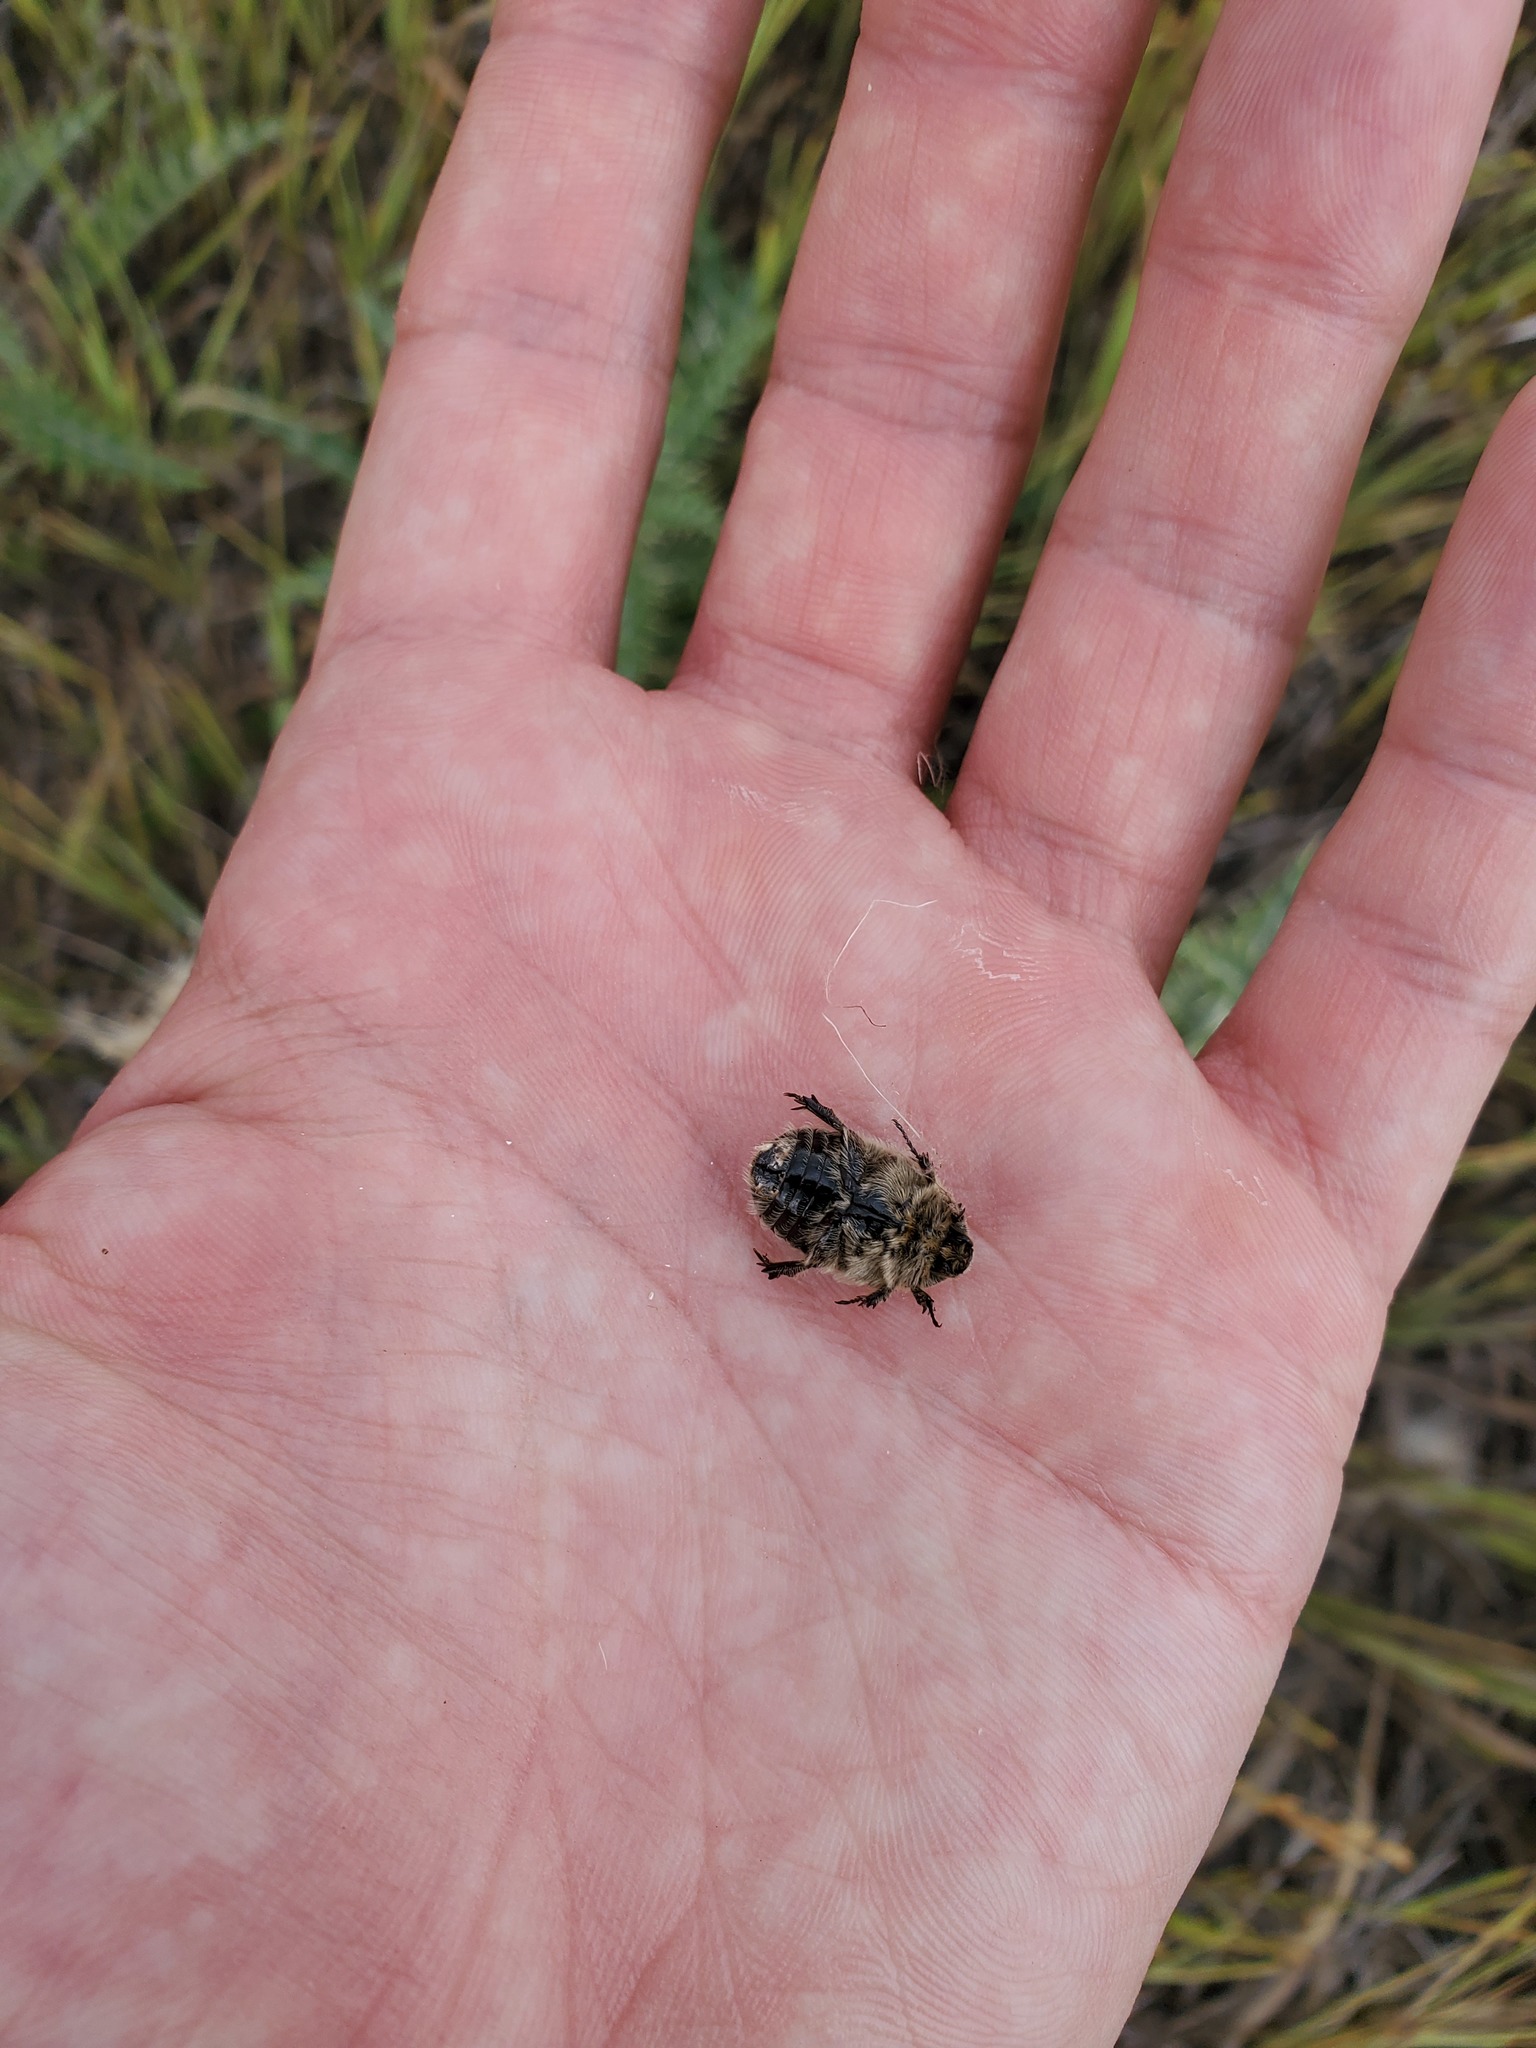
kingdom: Animalia
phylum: Arthropoda
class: Insecta
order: Coleoptera
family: Scarabaeidae
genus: Euphoria
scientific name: Euphoria inda
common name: Bumble flower beetle
